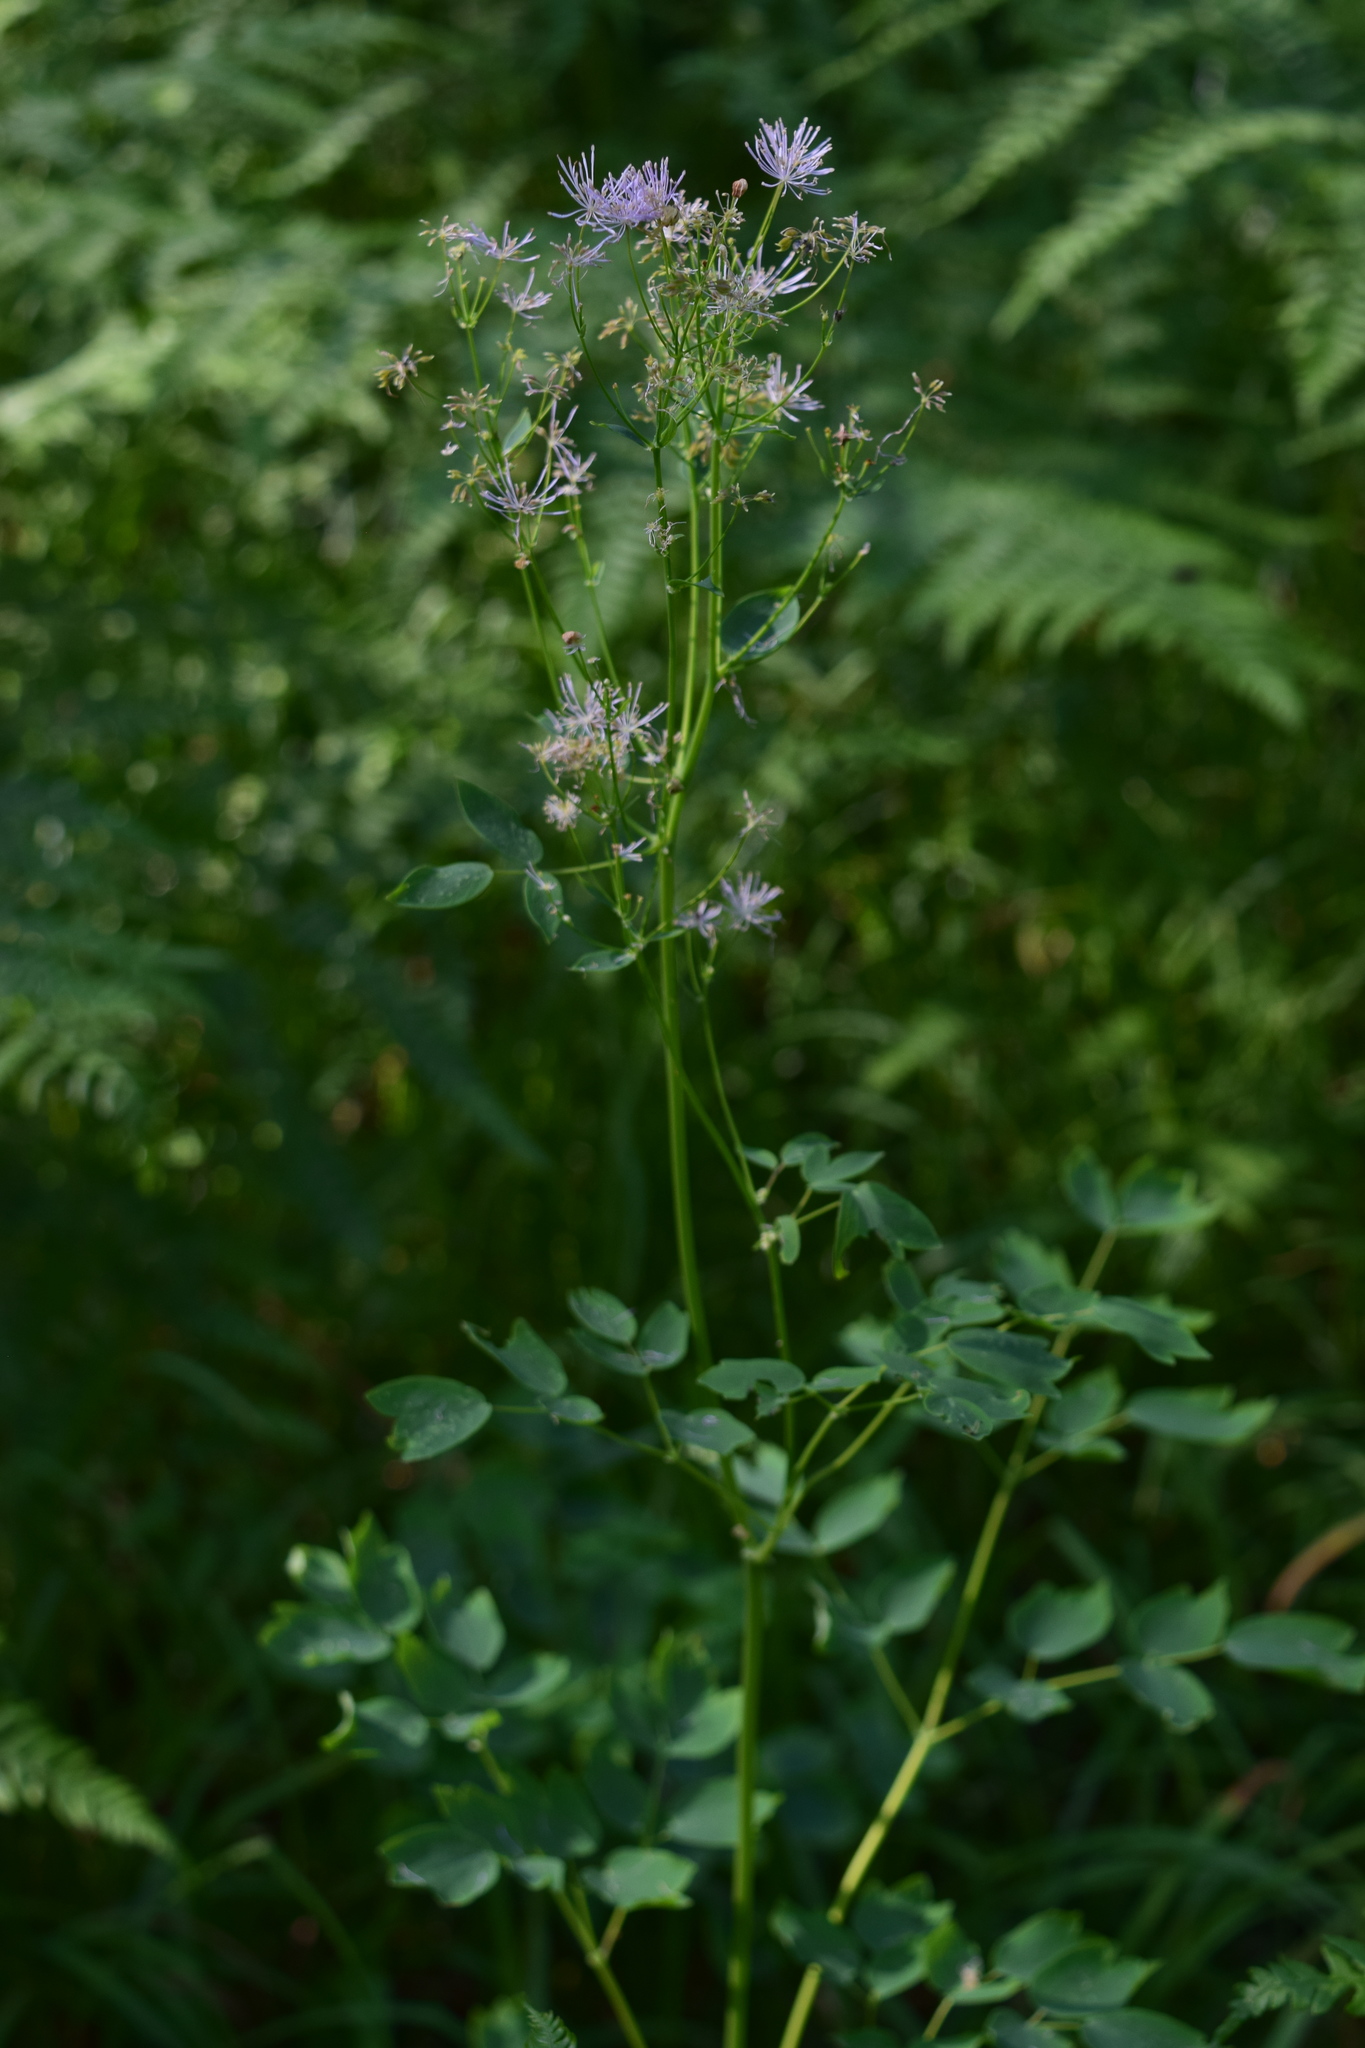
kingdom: Plantae
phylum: Tracheophyta
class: Magnoliopsida
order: Ranunculales
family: Ranunculaceae
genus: Thalictrum
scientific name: Thalictrum aquilegiifolium
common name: French meadow-rue
